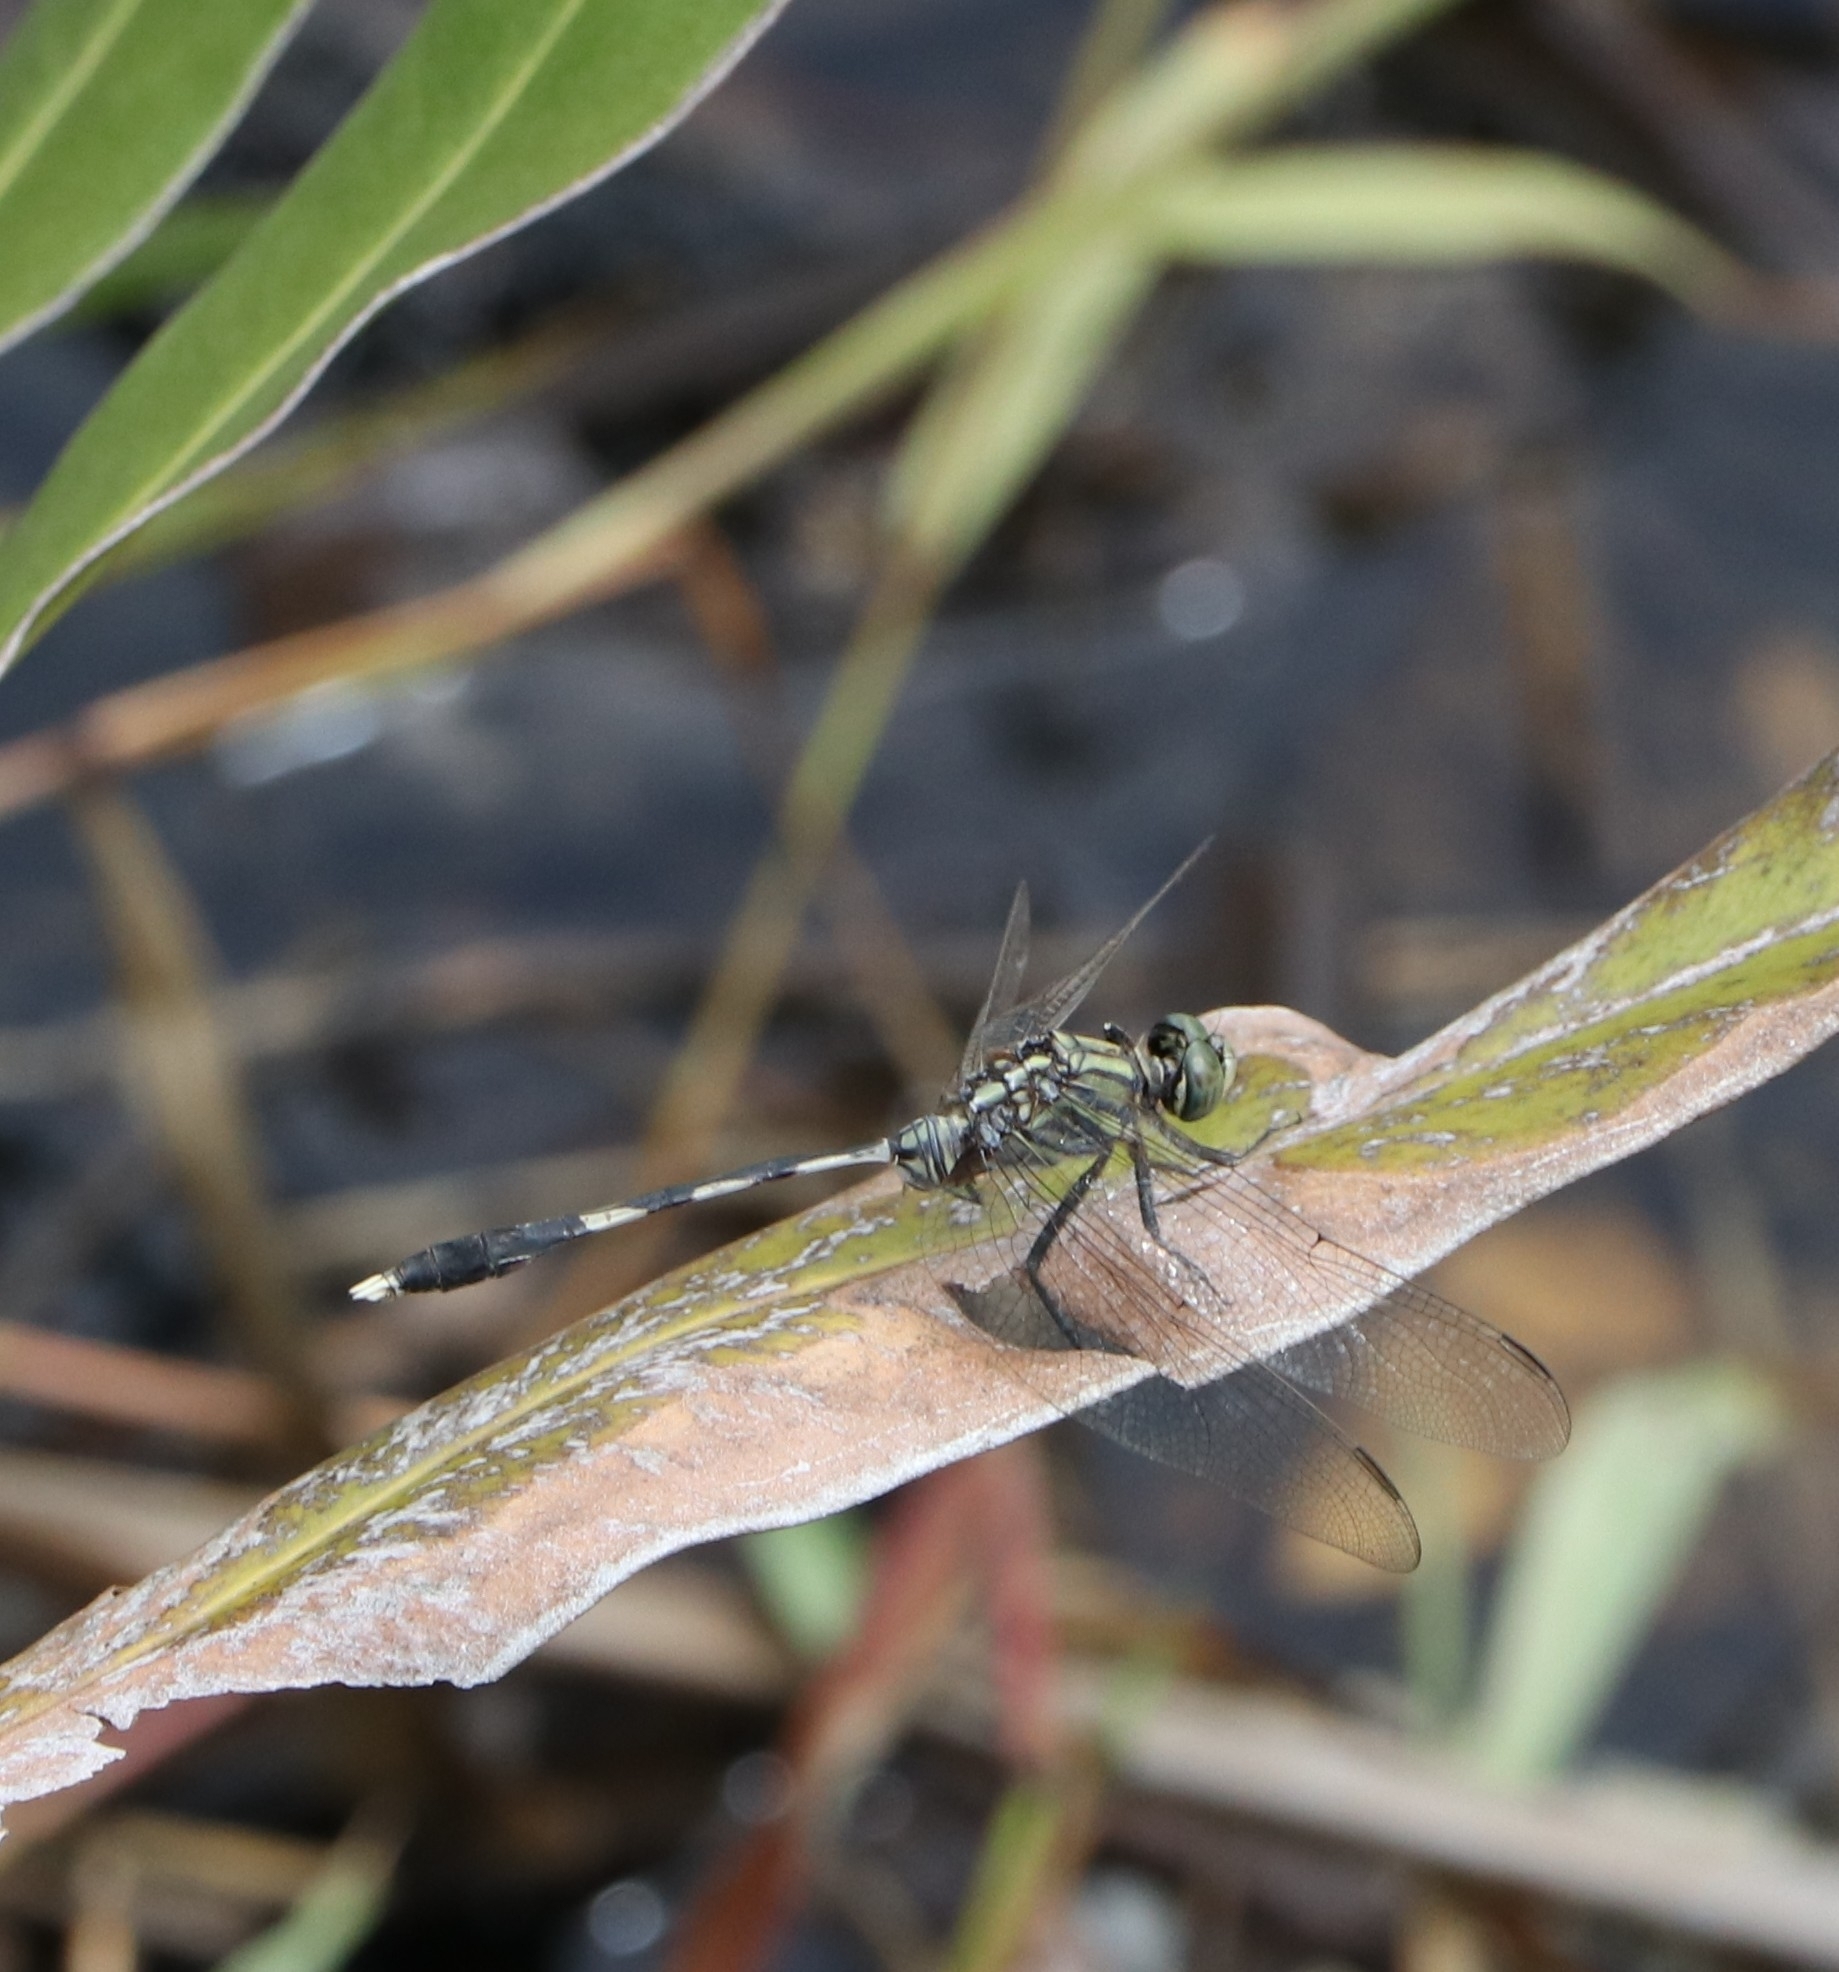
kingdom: Animalia
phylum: Arthropoda
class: Insecta
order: Odonata
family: Libellulidae
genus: Orthetrum
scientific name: Orthetrum sabina
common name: Slender skimmer
